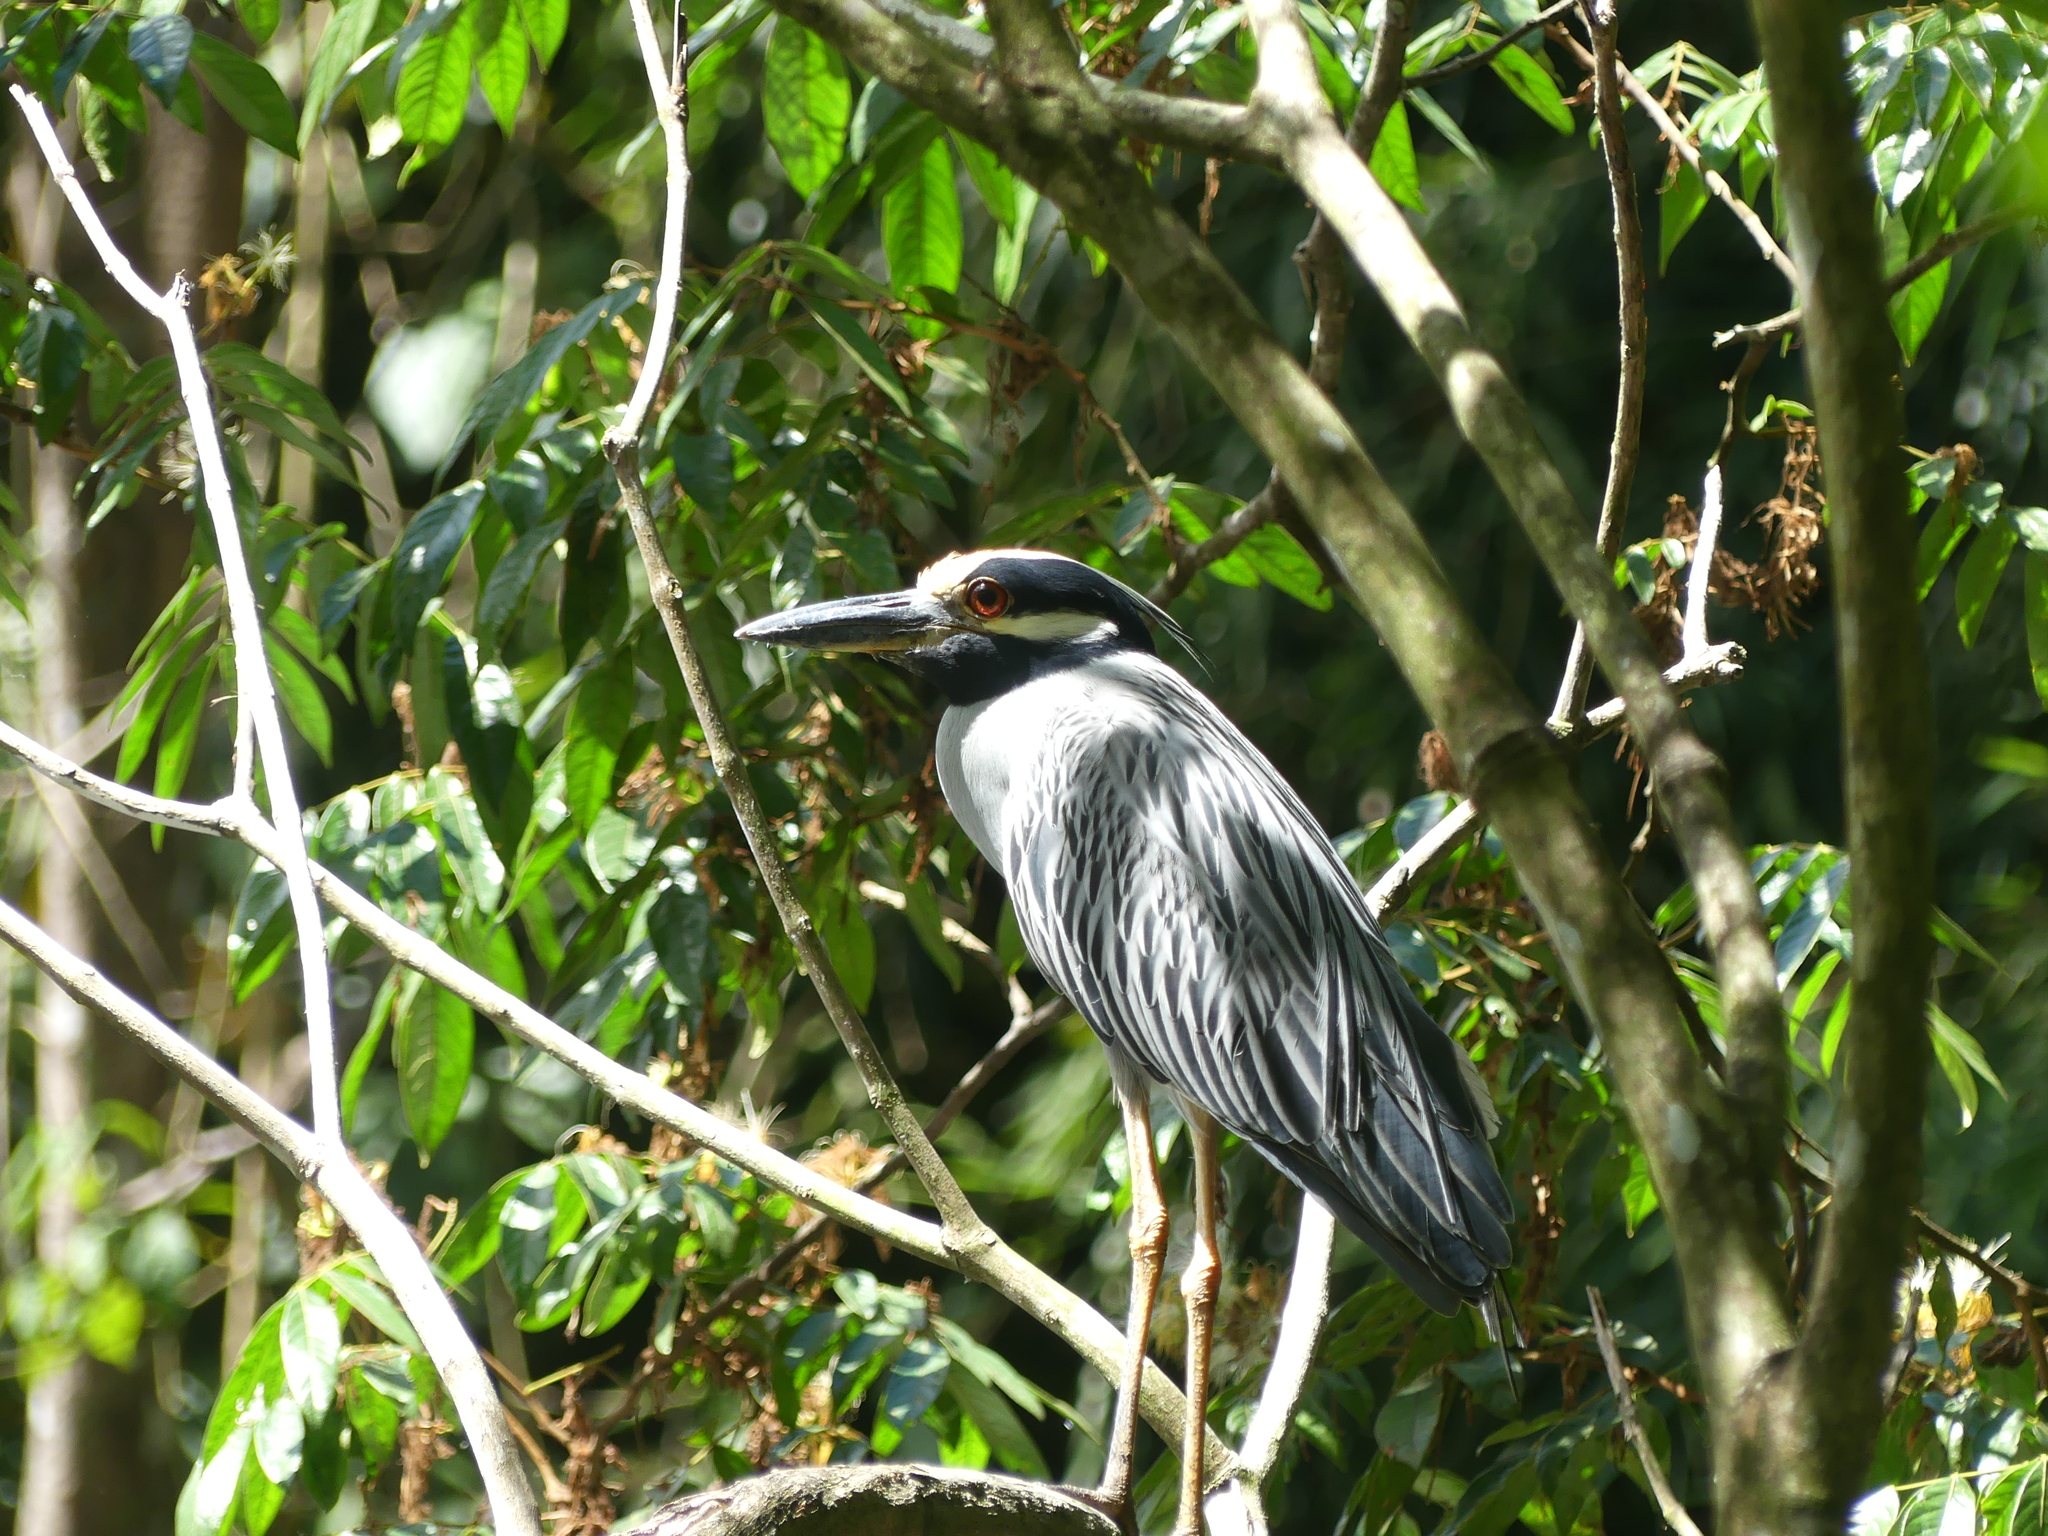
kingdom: Animalia
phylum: Chordata
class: Aves
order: Pelecaniformes
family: Ardeidae
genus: Nyctanassa
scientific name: Nyctanassa violacea
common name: Yellow-crowned night heron
